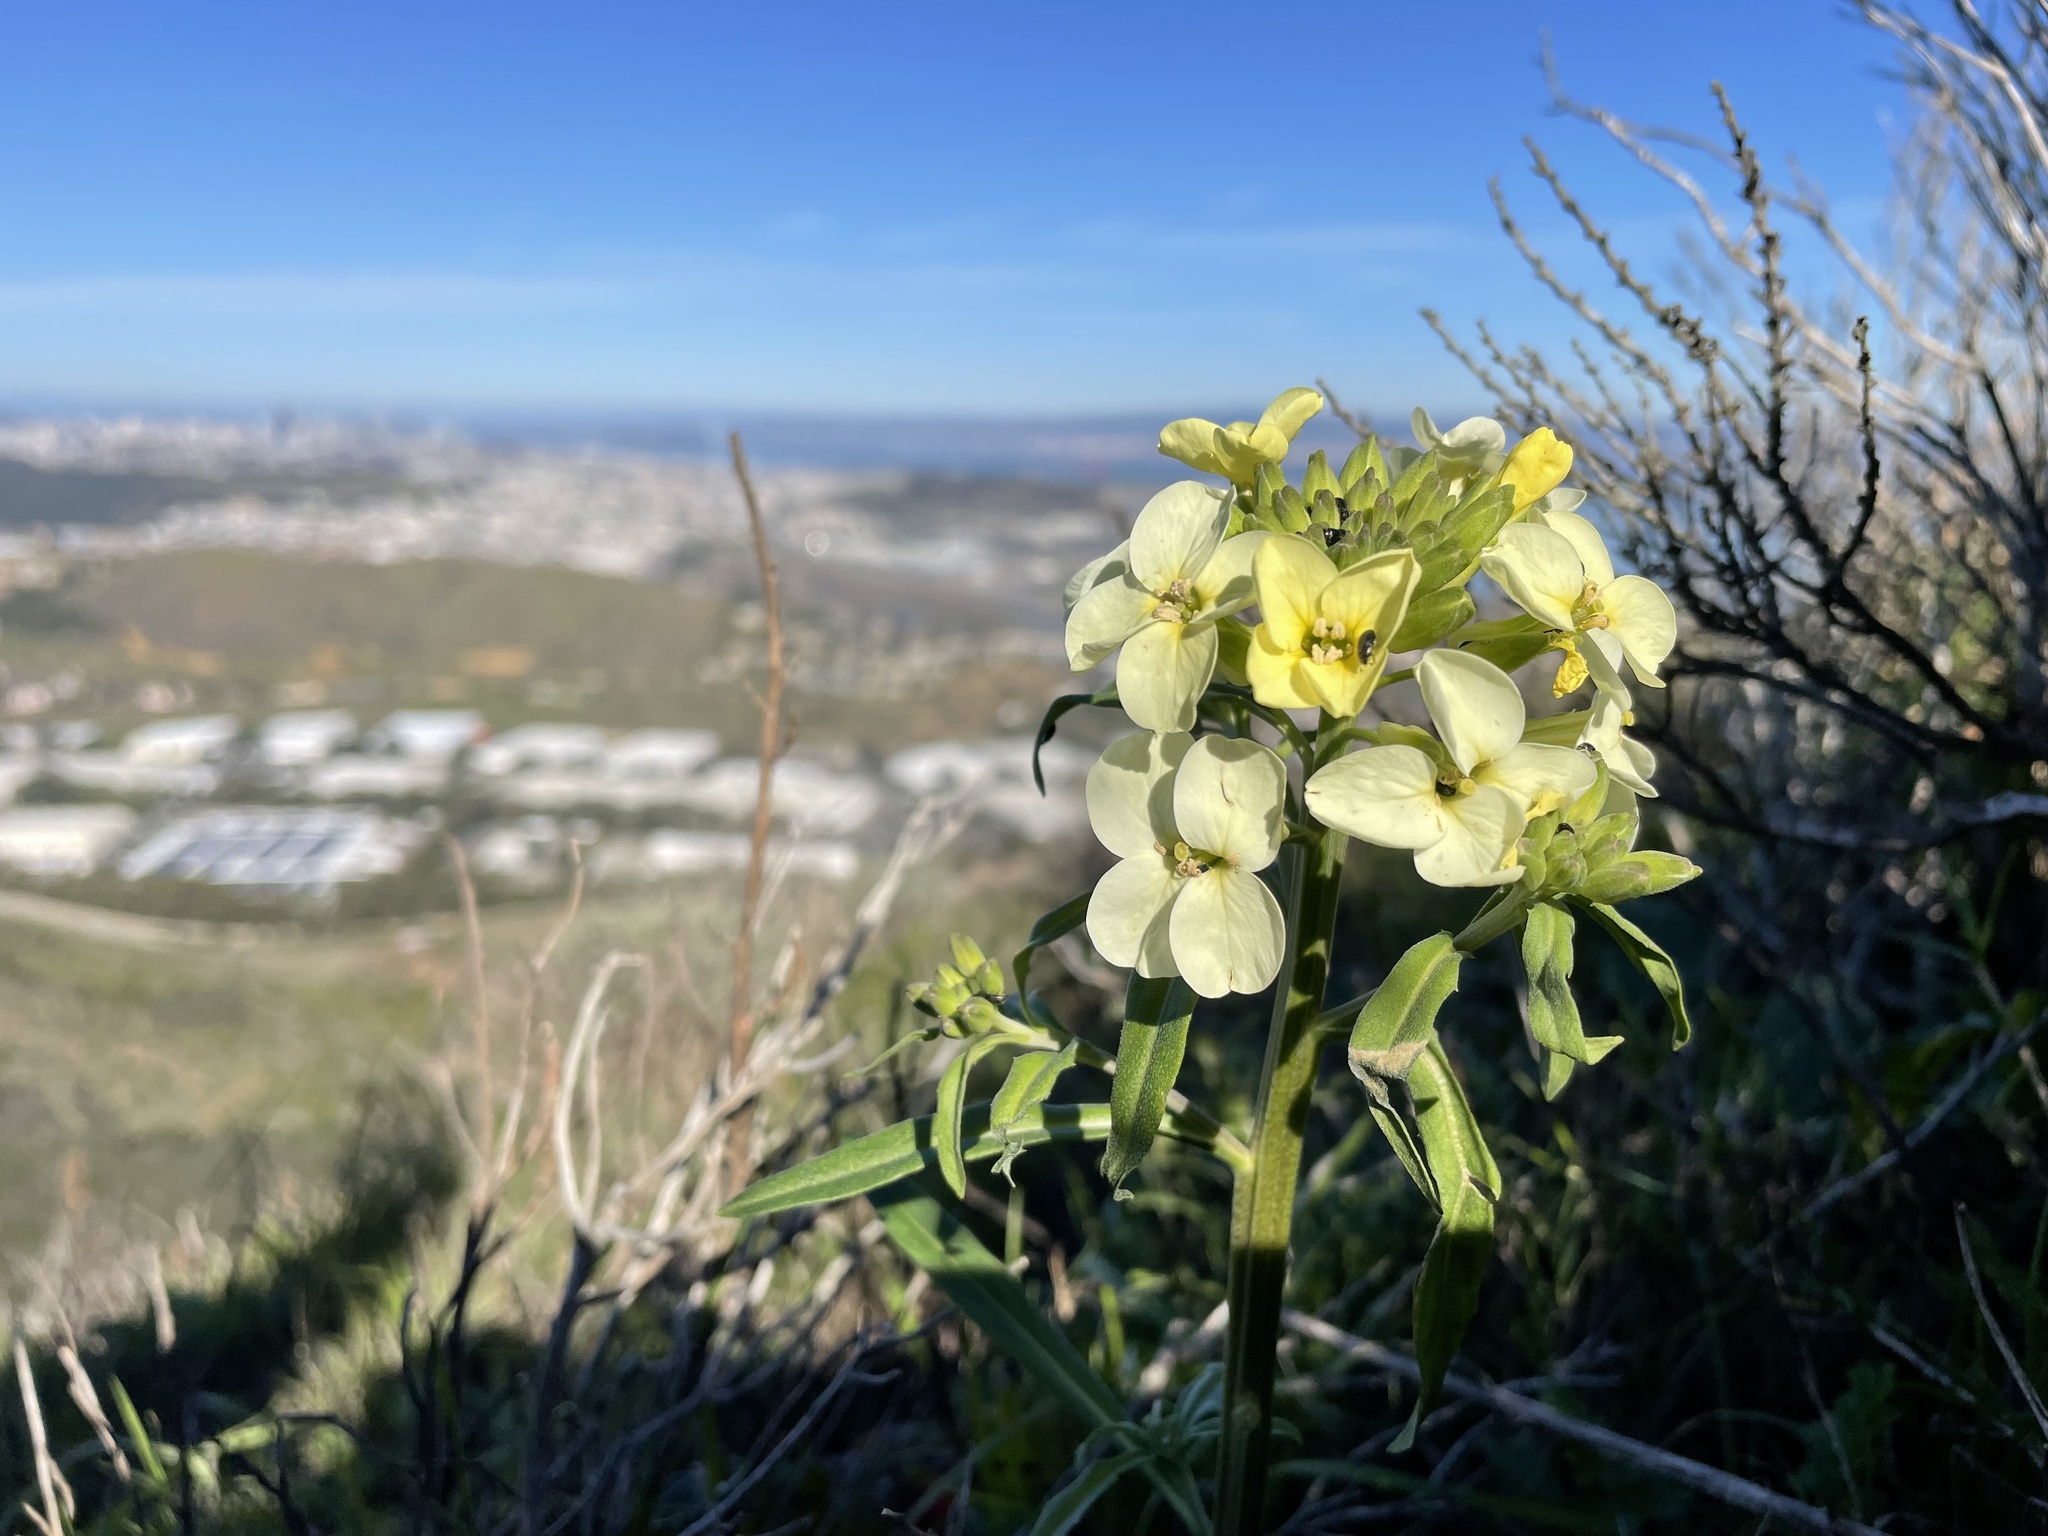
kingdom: Plantae
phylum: Tracheophyta
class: Magnoliopsida
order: Brassicales
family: Brassicaceae
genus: Erysimum
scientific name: Erysimum franciscanum
